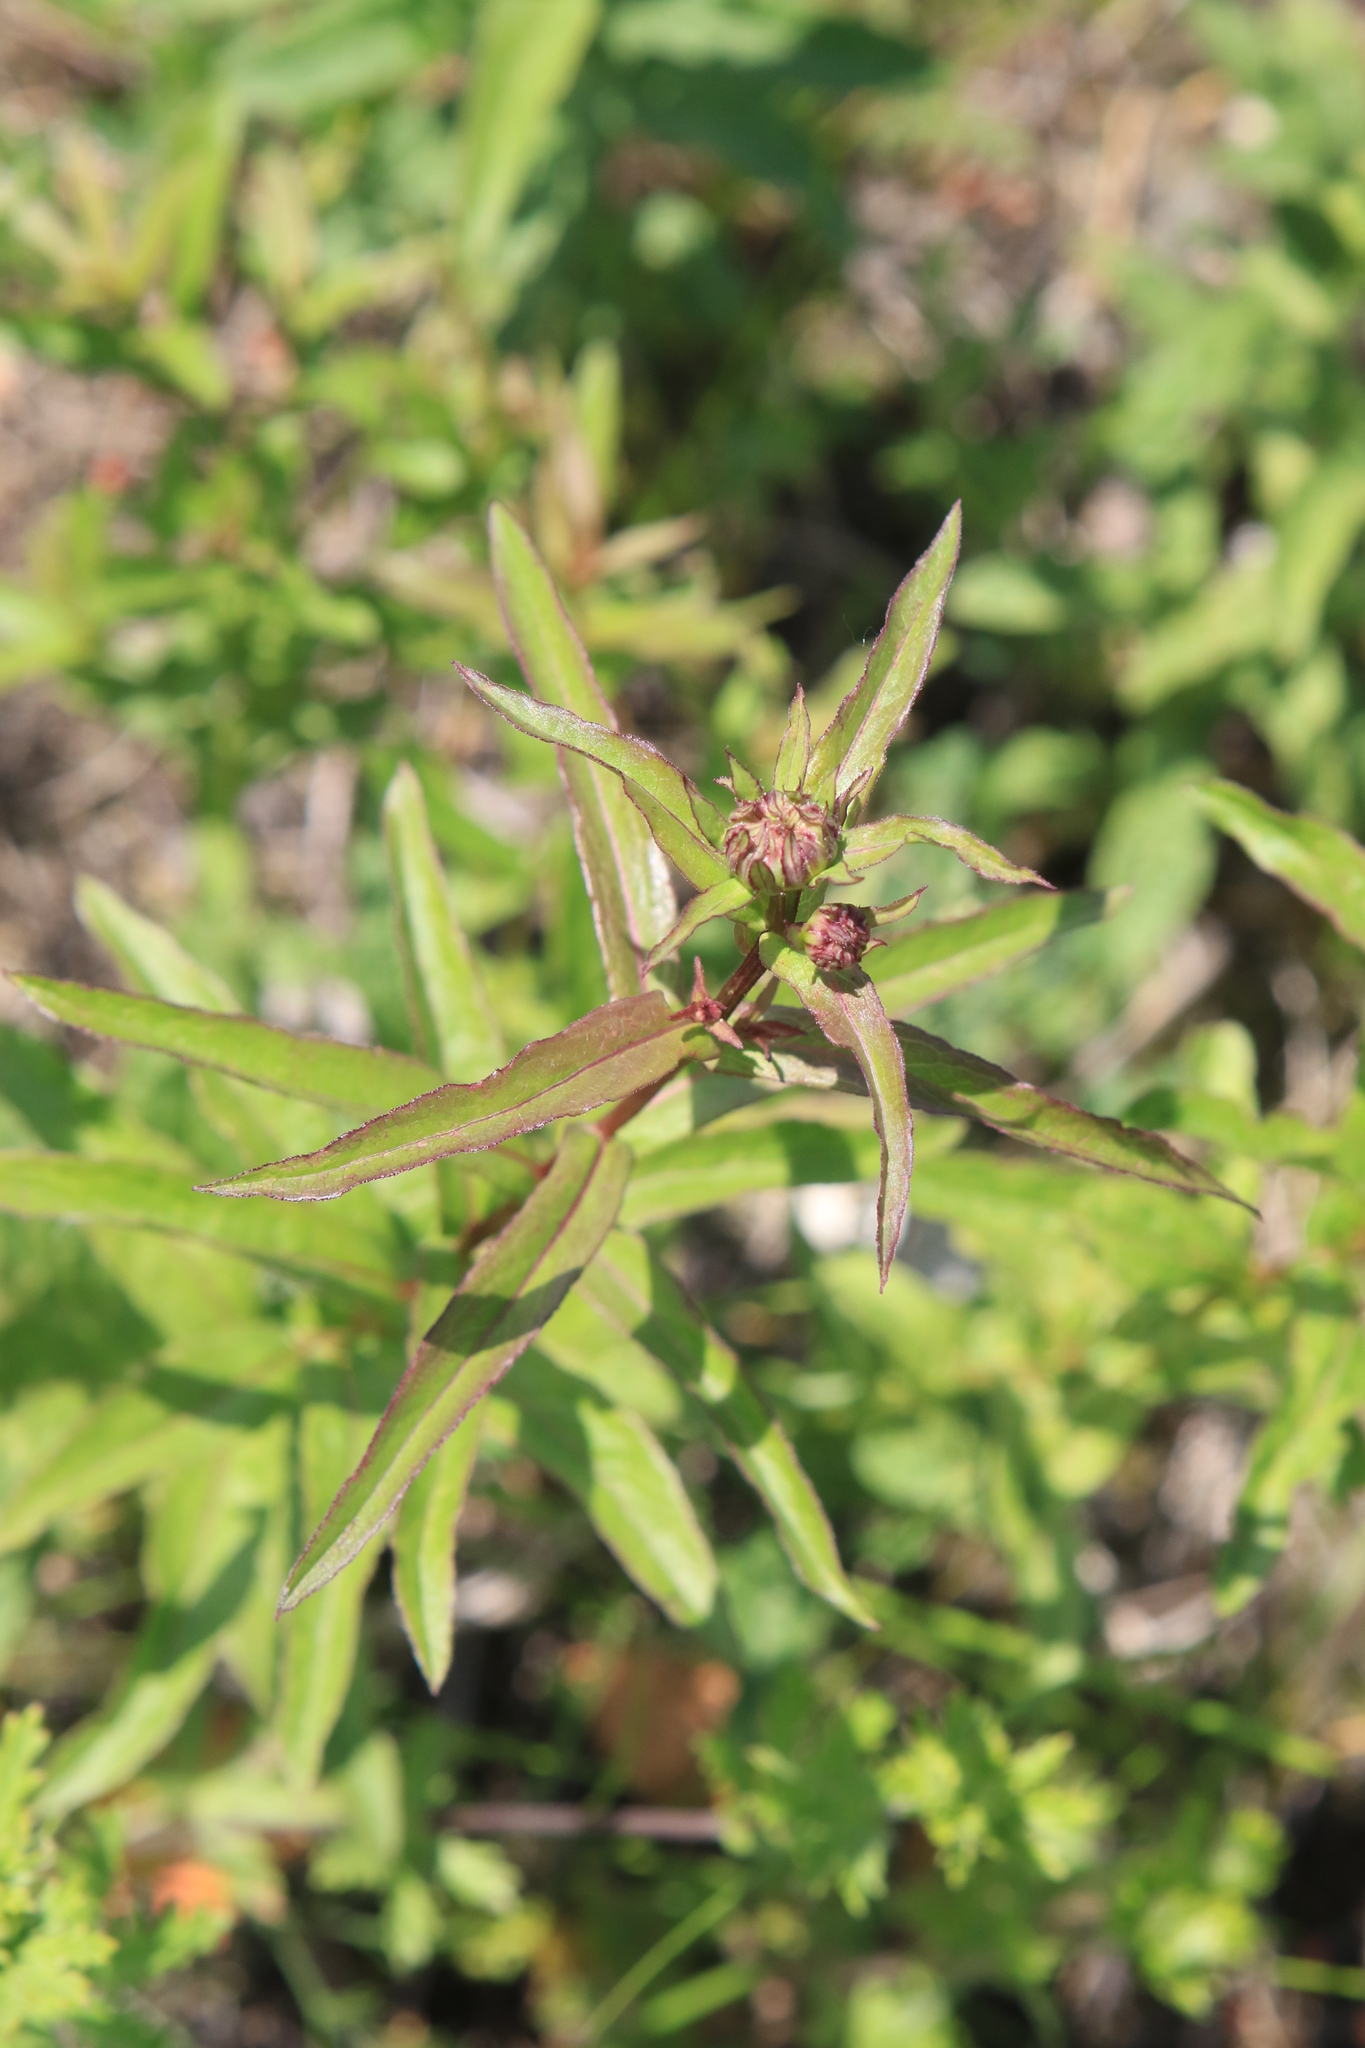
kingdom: Plantae
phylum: Tracheophyta
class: Magnoliopsida
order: Asterales
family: Asteraceae
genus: Pentanema
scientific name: Pentanema salicinum
